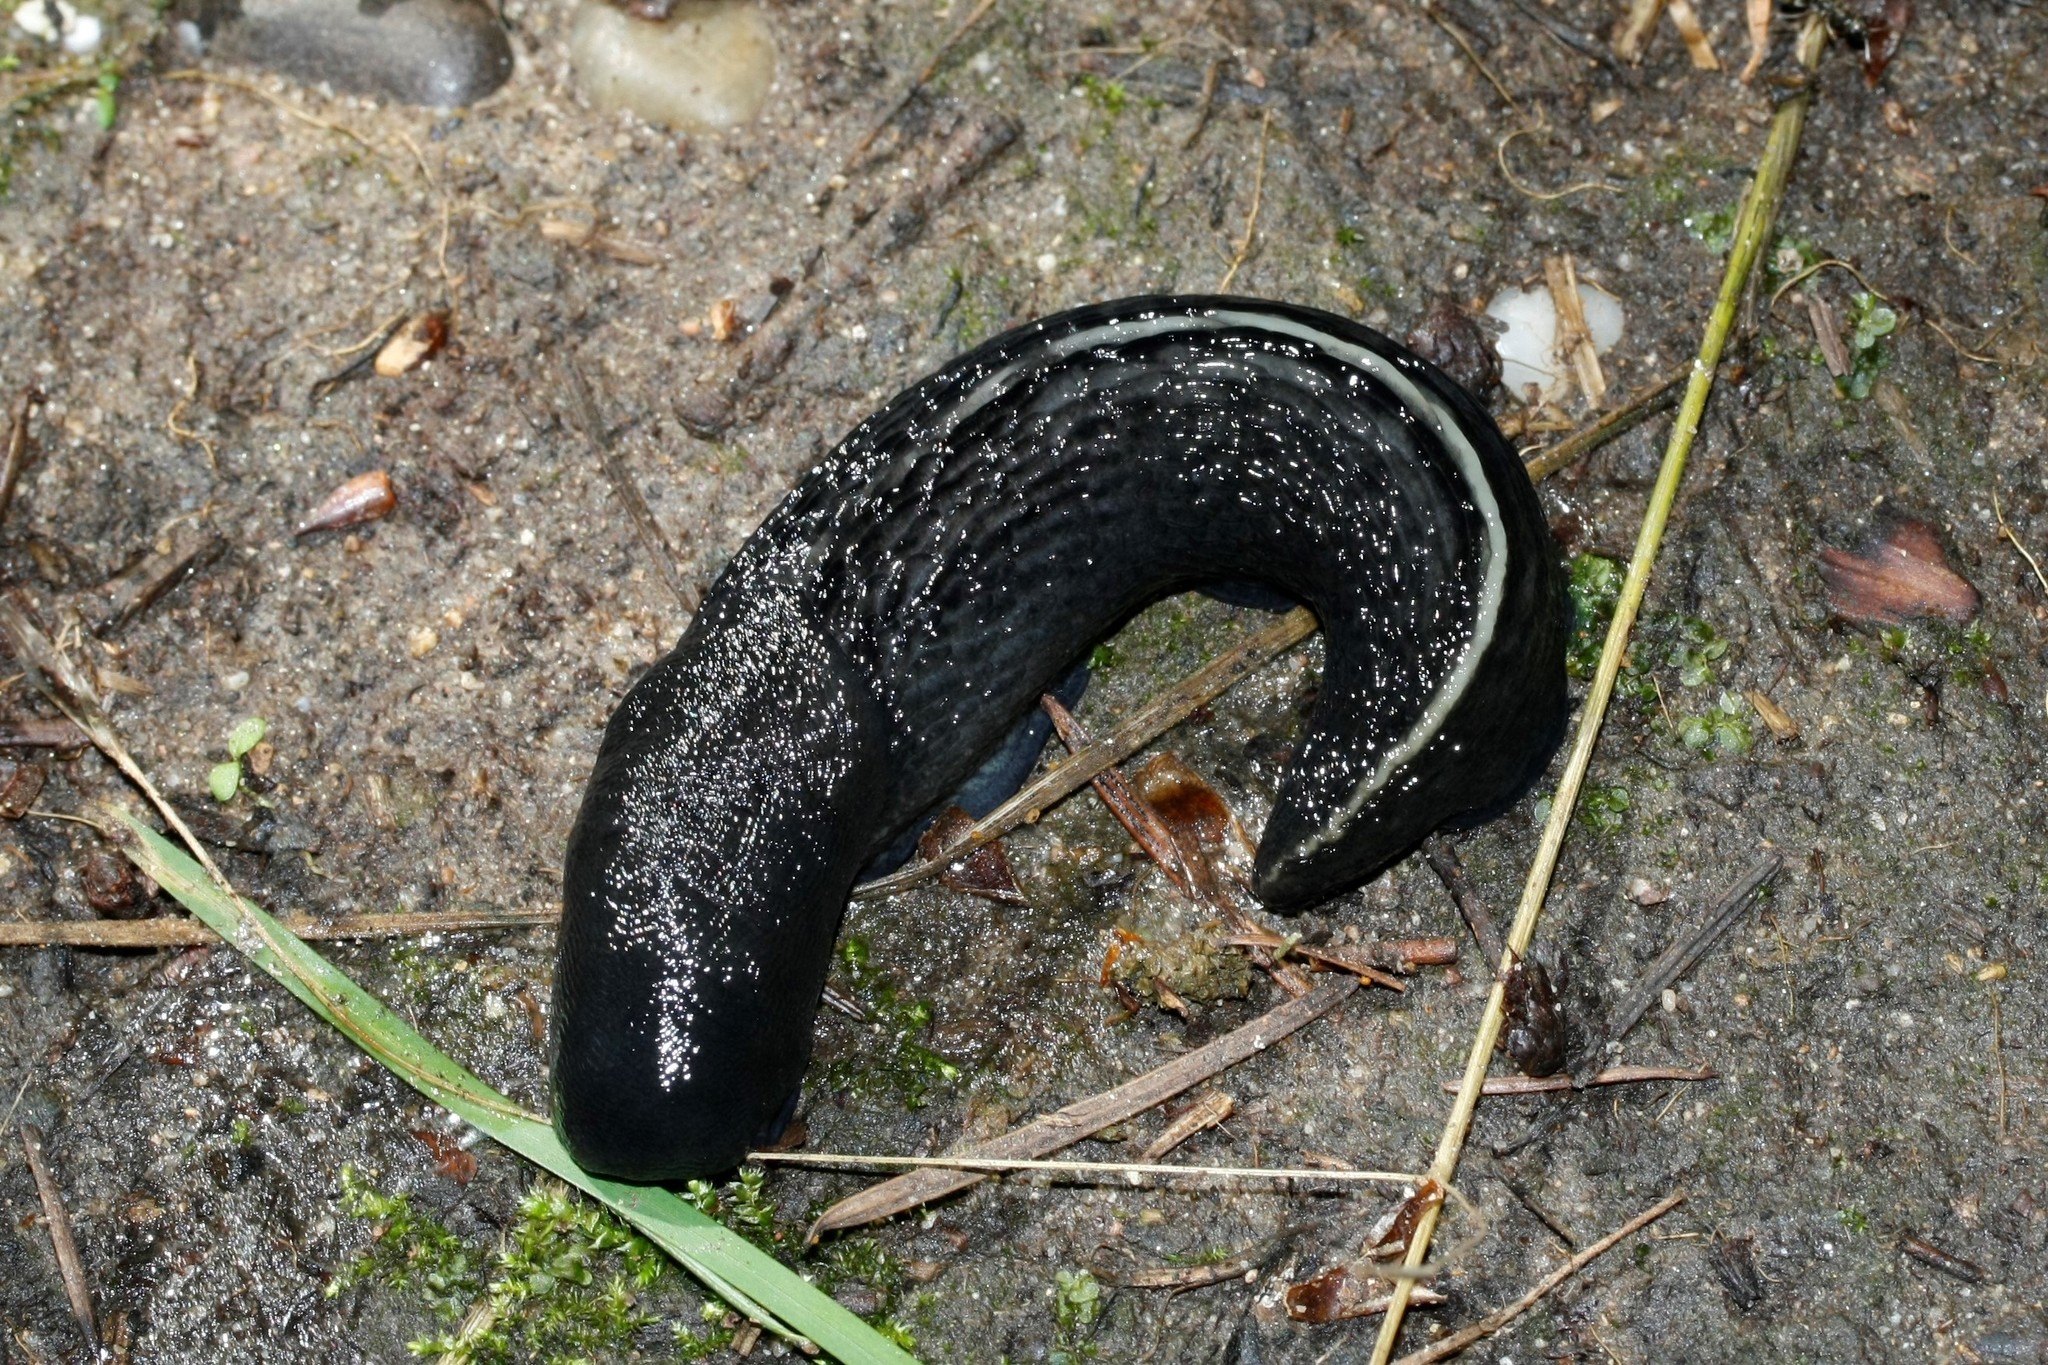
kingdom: Animalia
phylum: Mollusca
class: Gastropoda
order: Stylommatophora
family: Limacidae
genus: Limax
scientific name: Limax cinereoniger
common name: Ash-black slug
